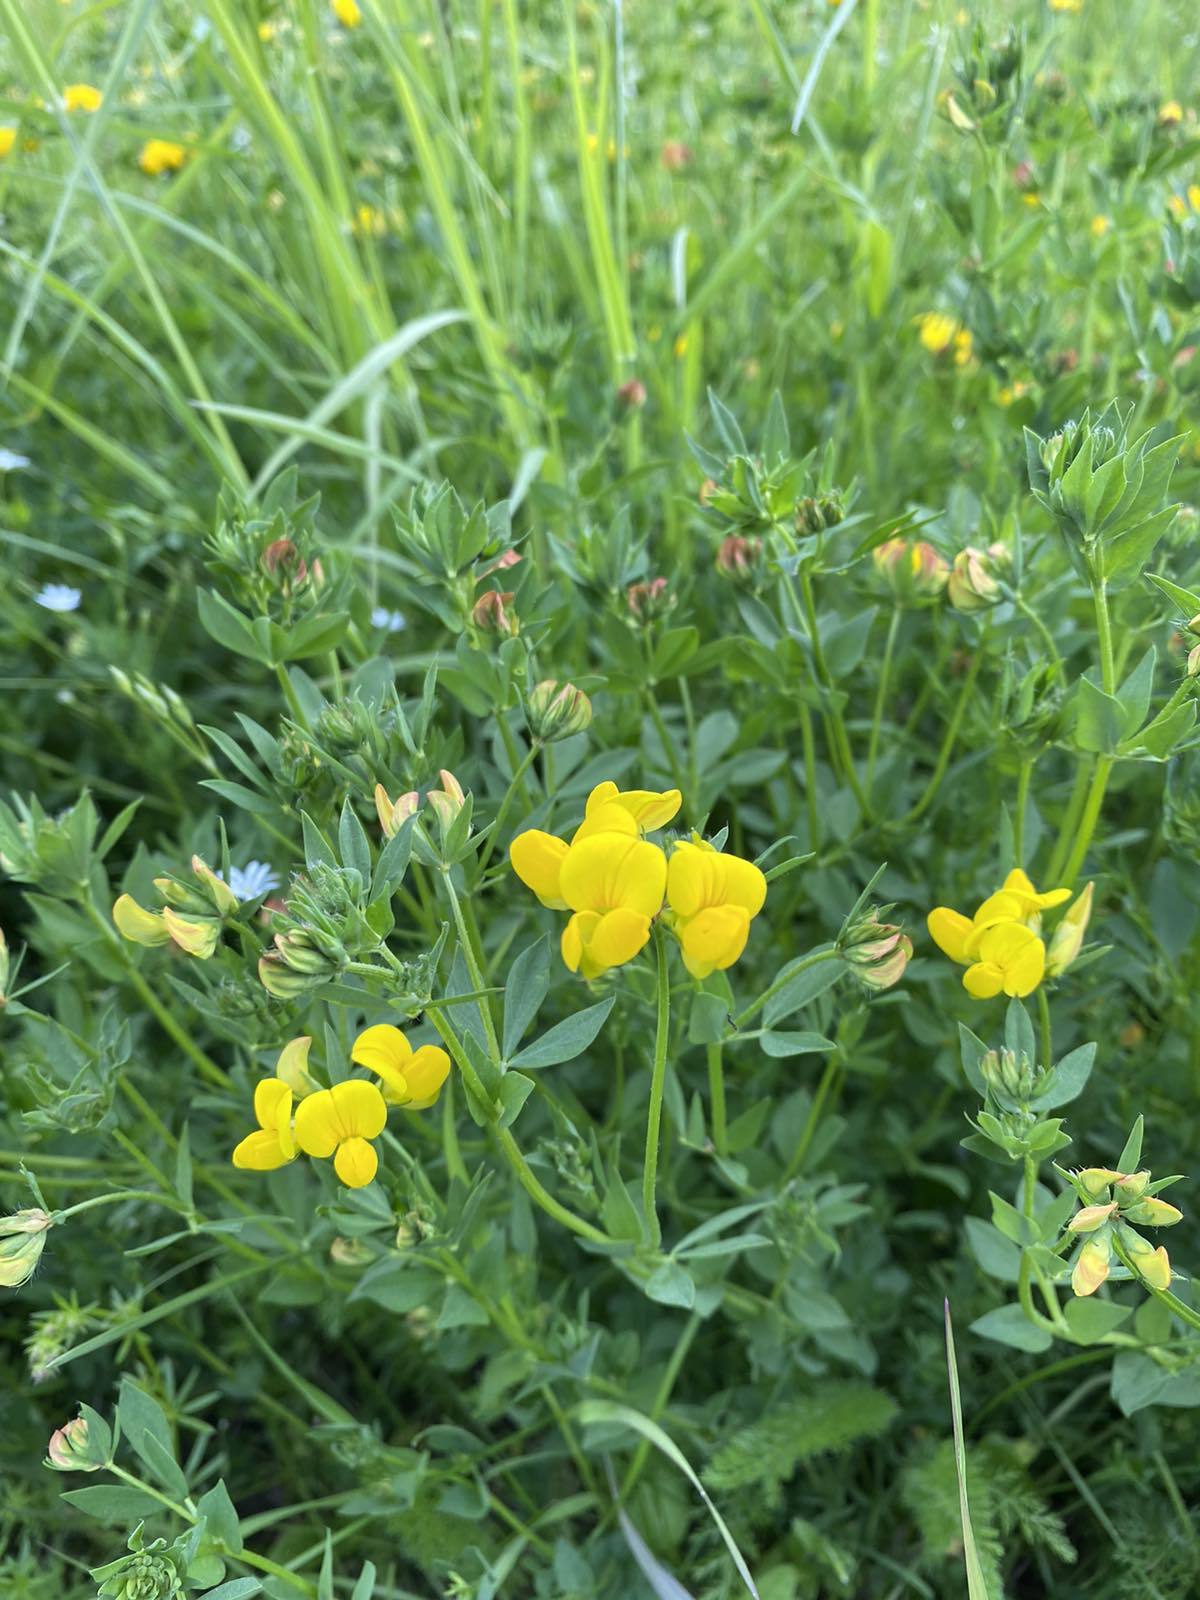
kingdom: Plantae
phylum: Tracheophyta
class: Magnoliopsida
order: Fabales
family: Fabaceae
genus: Lotus
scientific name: Lotus corniculatus
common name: Common bird's-foot-trefoil
